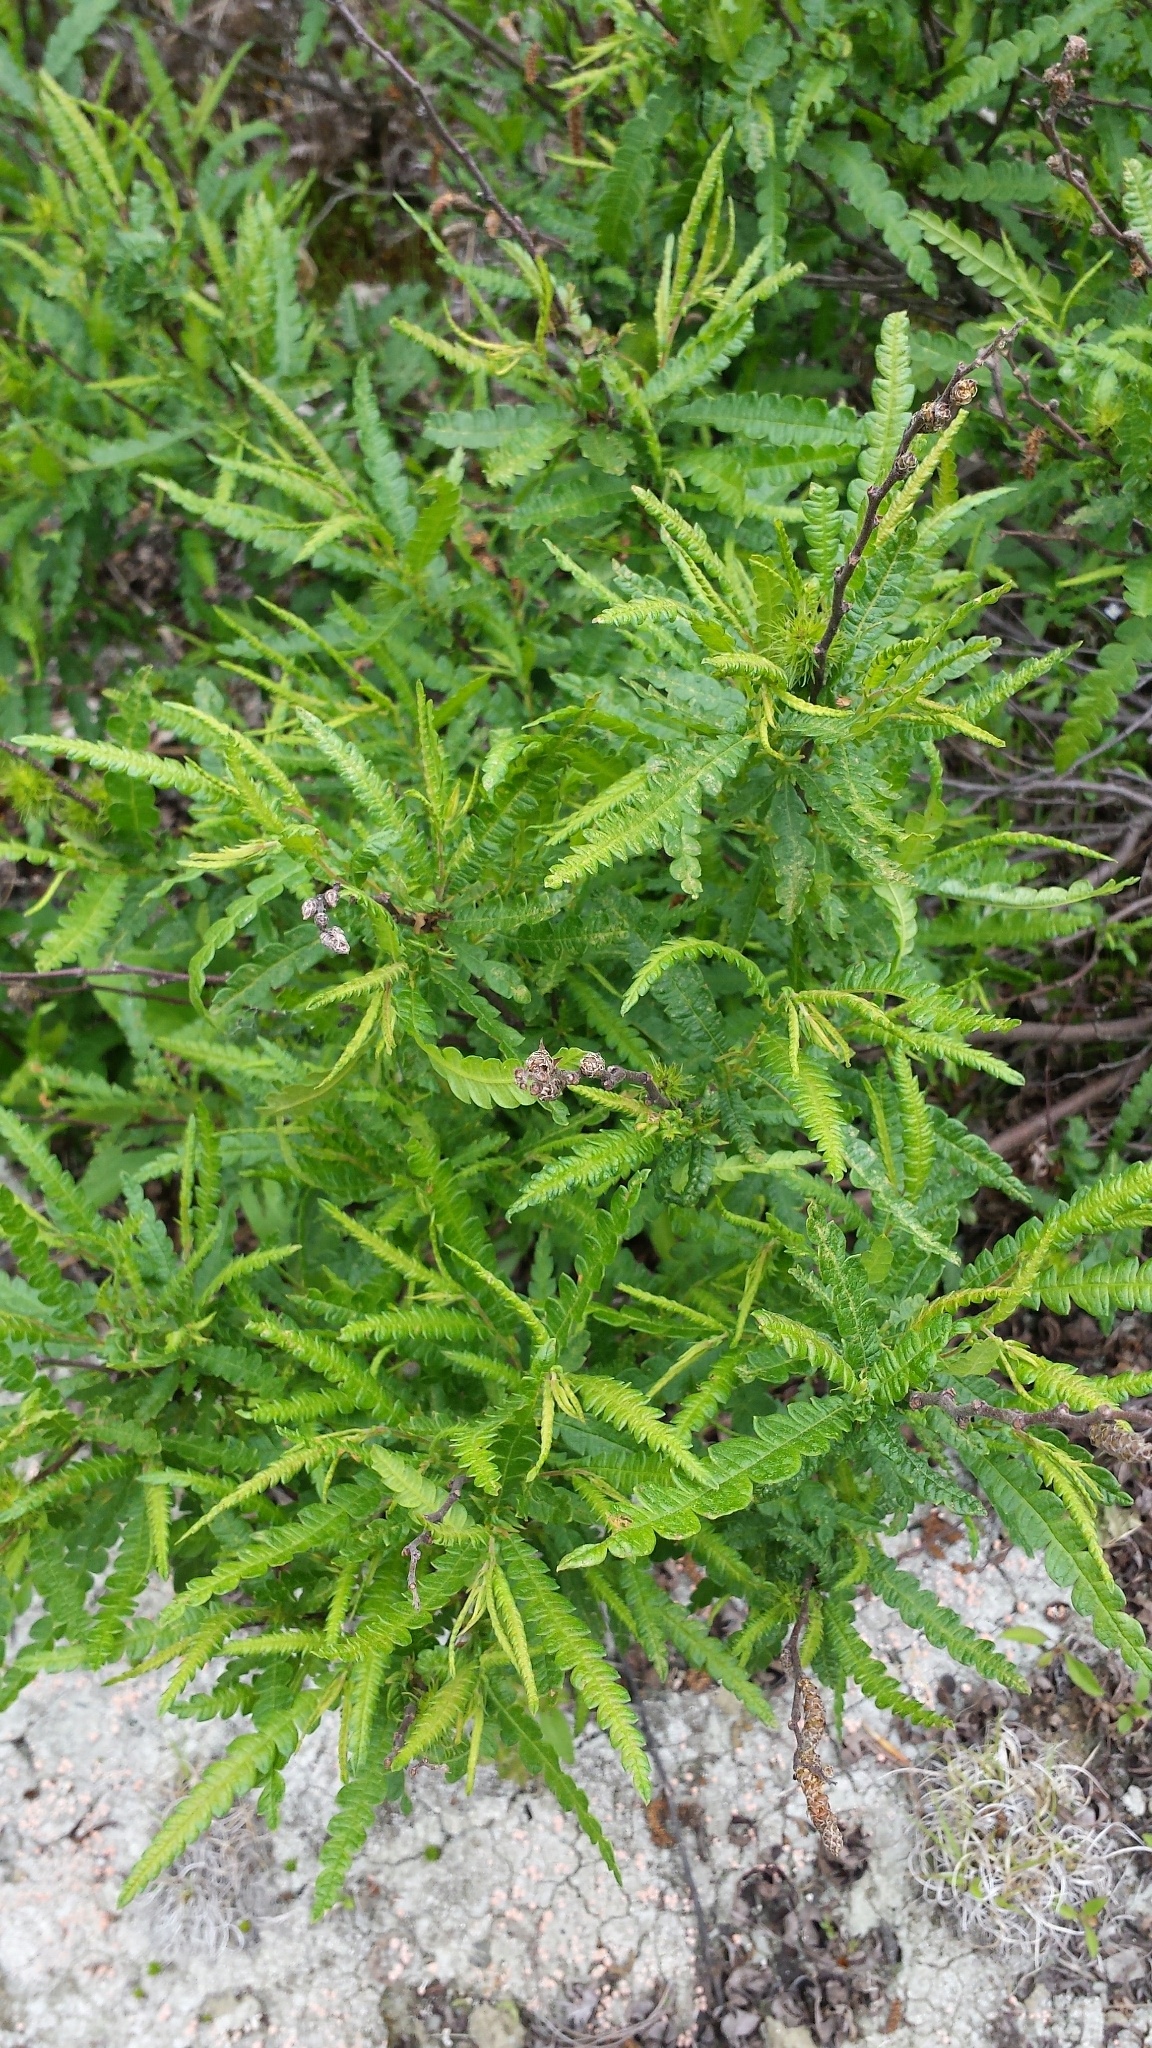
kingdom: Plantae
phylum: Tracheophyta
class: Magnoliopsida
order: Fagales
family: Myricaceae
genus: Comptonia
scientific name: Comptonia peregrina
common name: Sweet-fern
